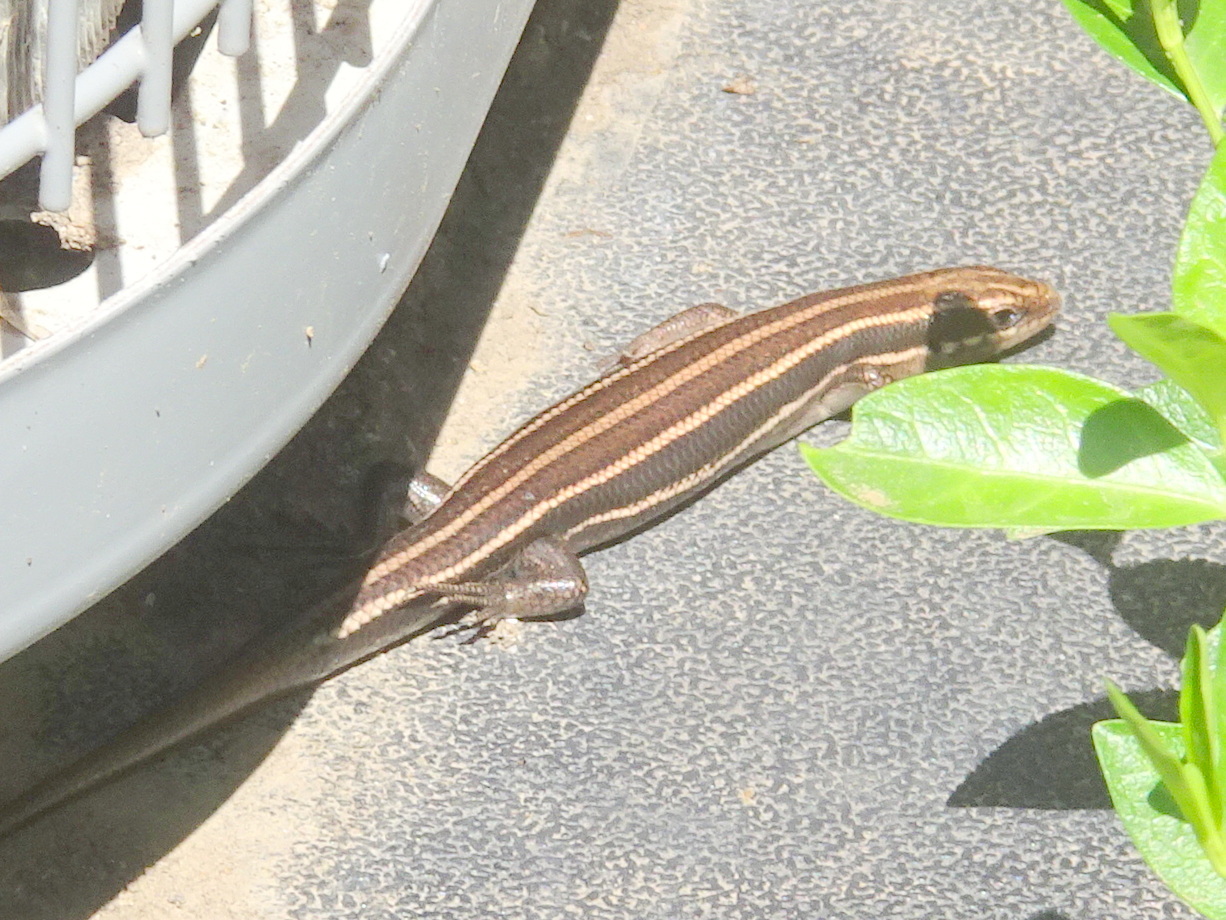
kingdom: Animalia
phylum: Chordata
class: Squamata
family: Scincidae
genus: Plestiodon
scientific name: Plestiodon fasciatus
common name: Five-lined skink
